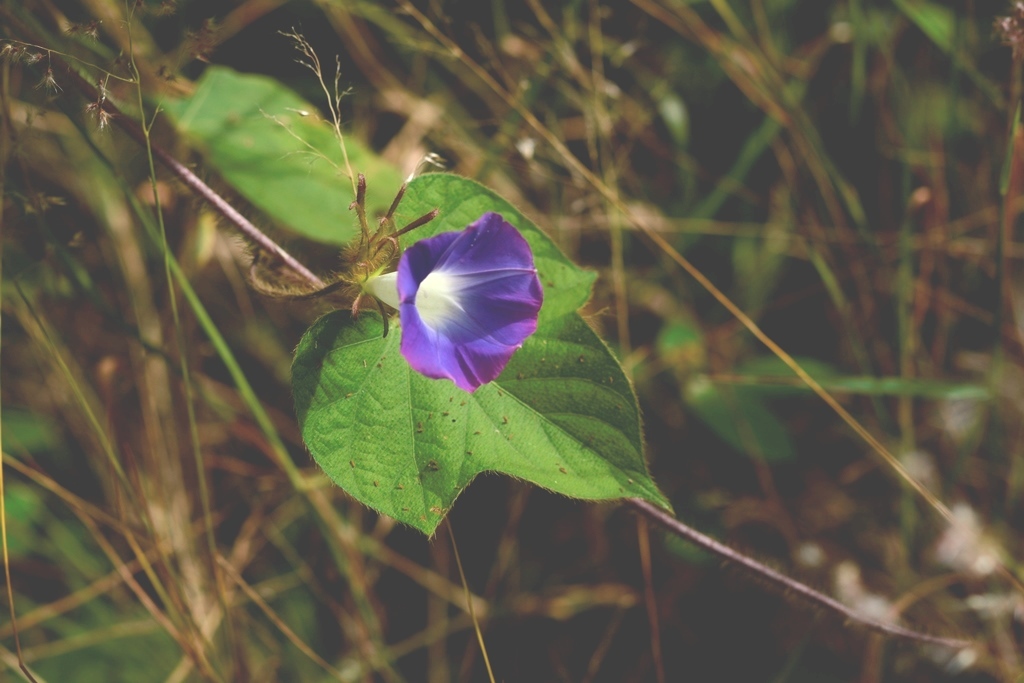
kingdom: Plantae
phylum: Tracheophyta
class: Magnoliopsida
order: Solanales
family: Convolvulaceae
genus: Ipomoea
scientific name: Ipomoea hederacea
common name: Ivy-leaved morning-glory
